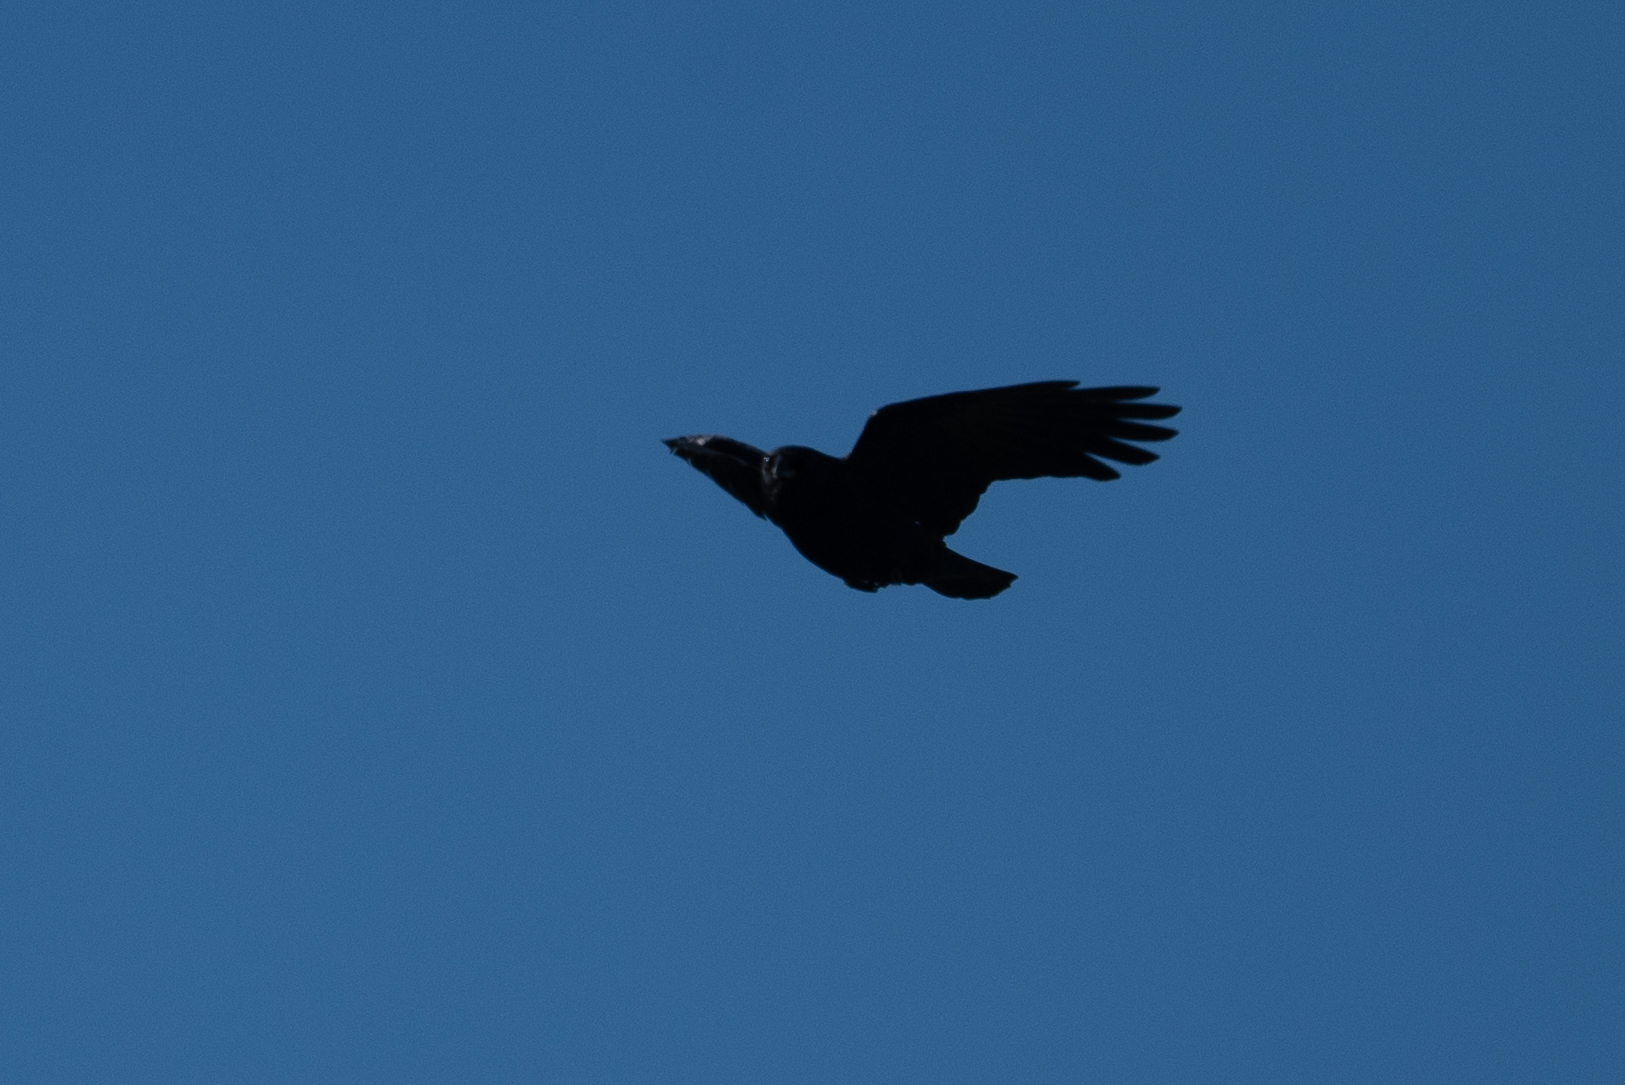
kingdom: Animalia
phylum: Chordata
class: Aves
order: Passeriformes
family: Corvidae
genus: Corvus
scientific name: Corvus brachyrhynchos
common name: American crow
